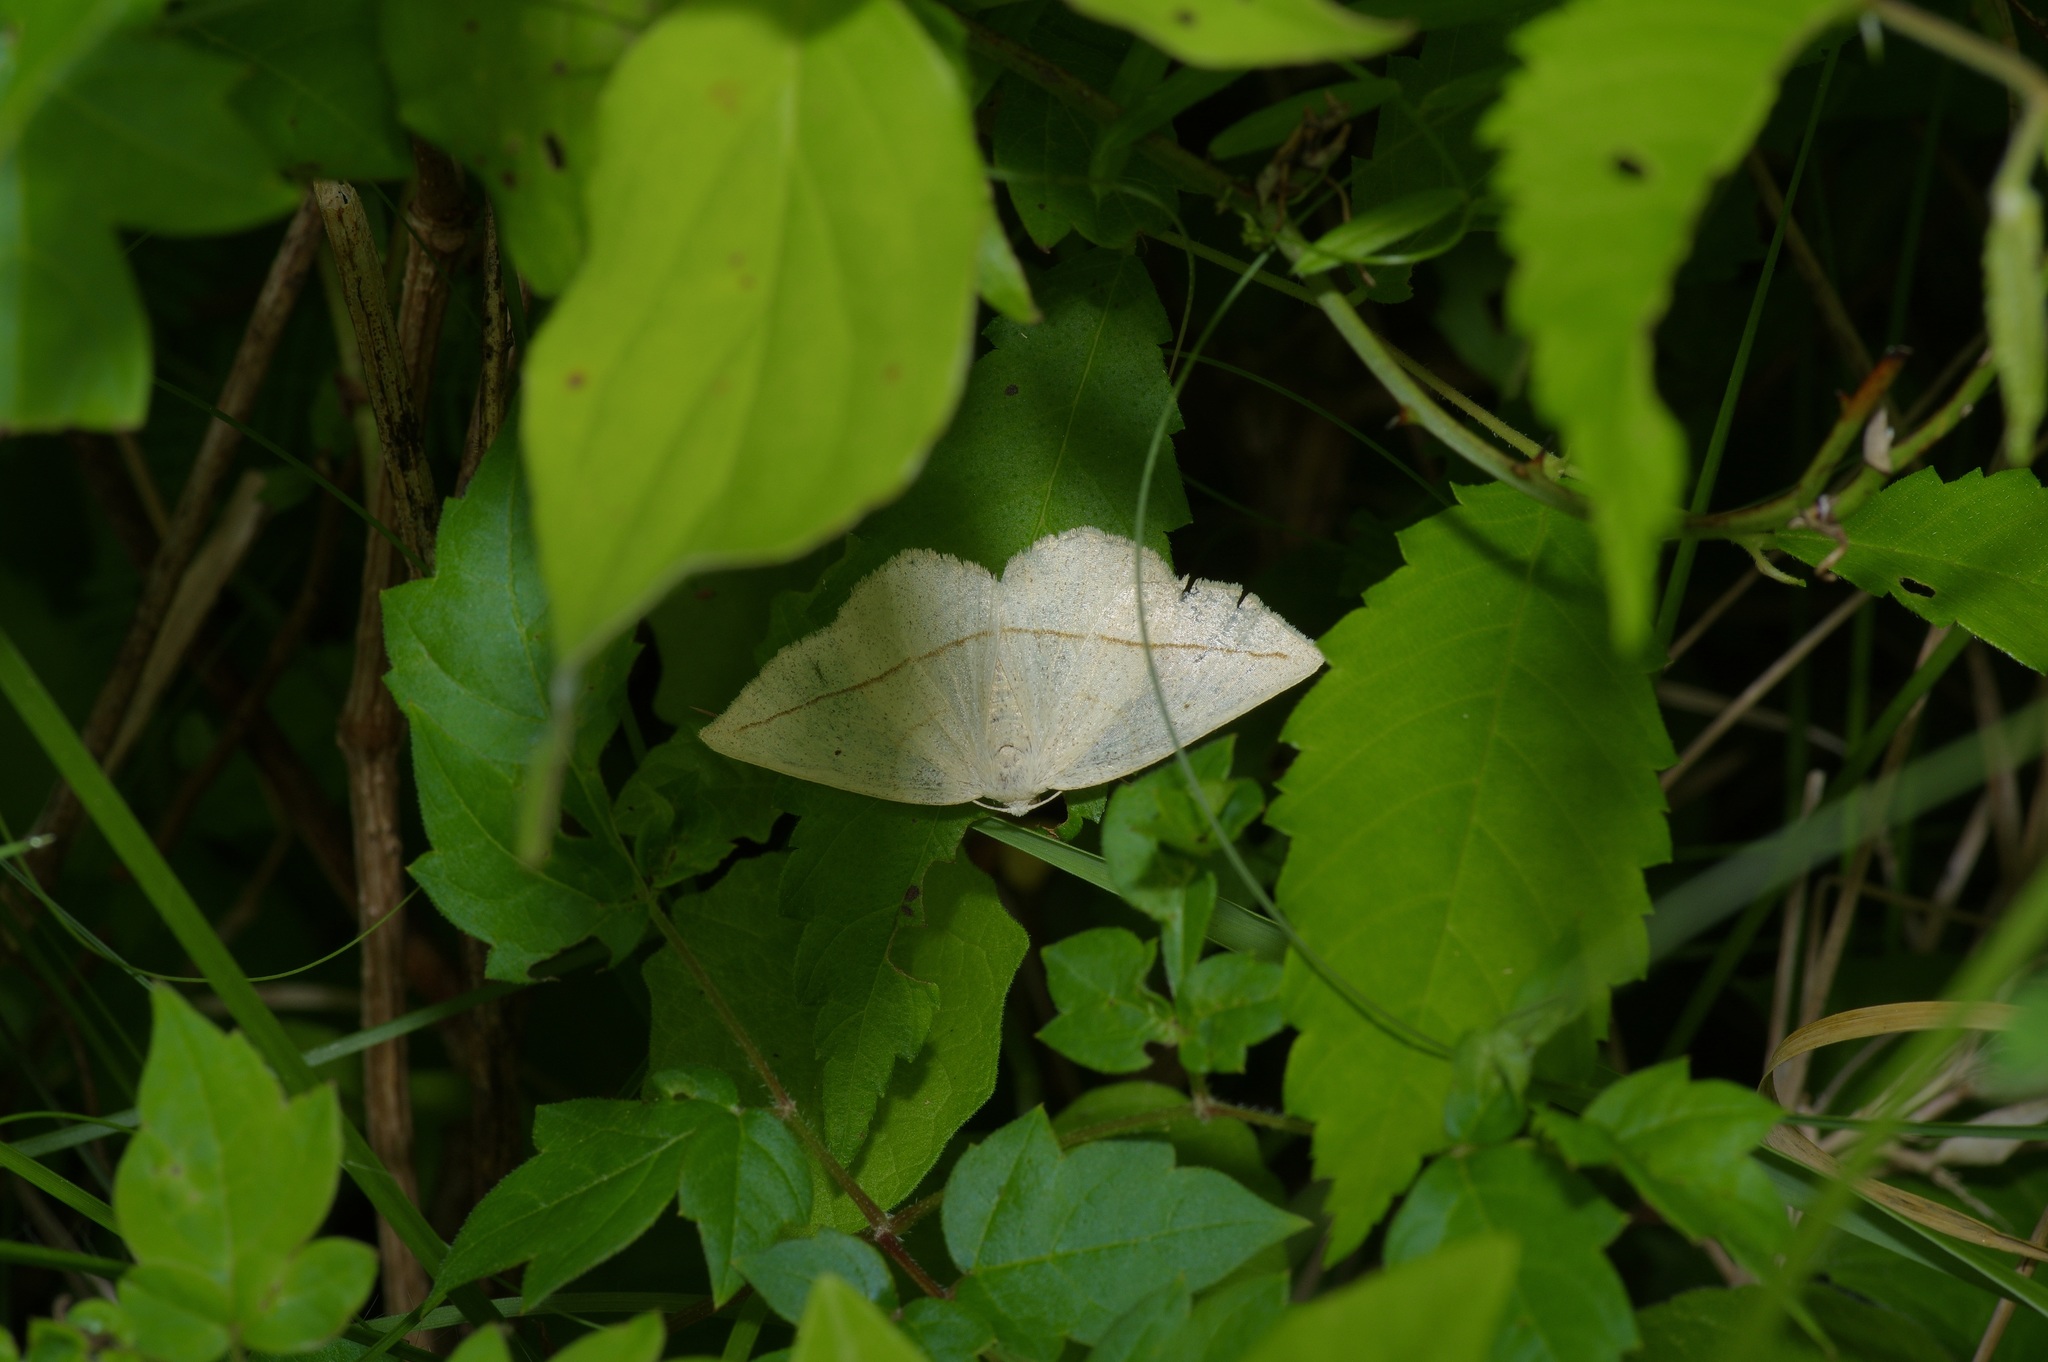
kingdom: Animalia
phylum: Arthropoda
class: Insecta
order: Lepidoptera
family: Geometridae
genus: Eusarca
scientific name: Eusarca confusaria
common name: Confused eusarca
